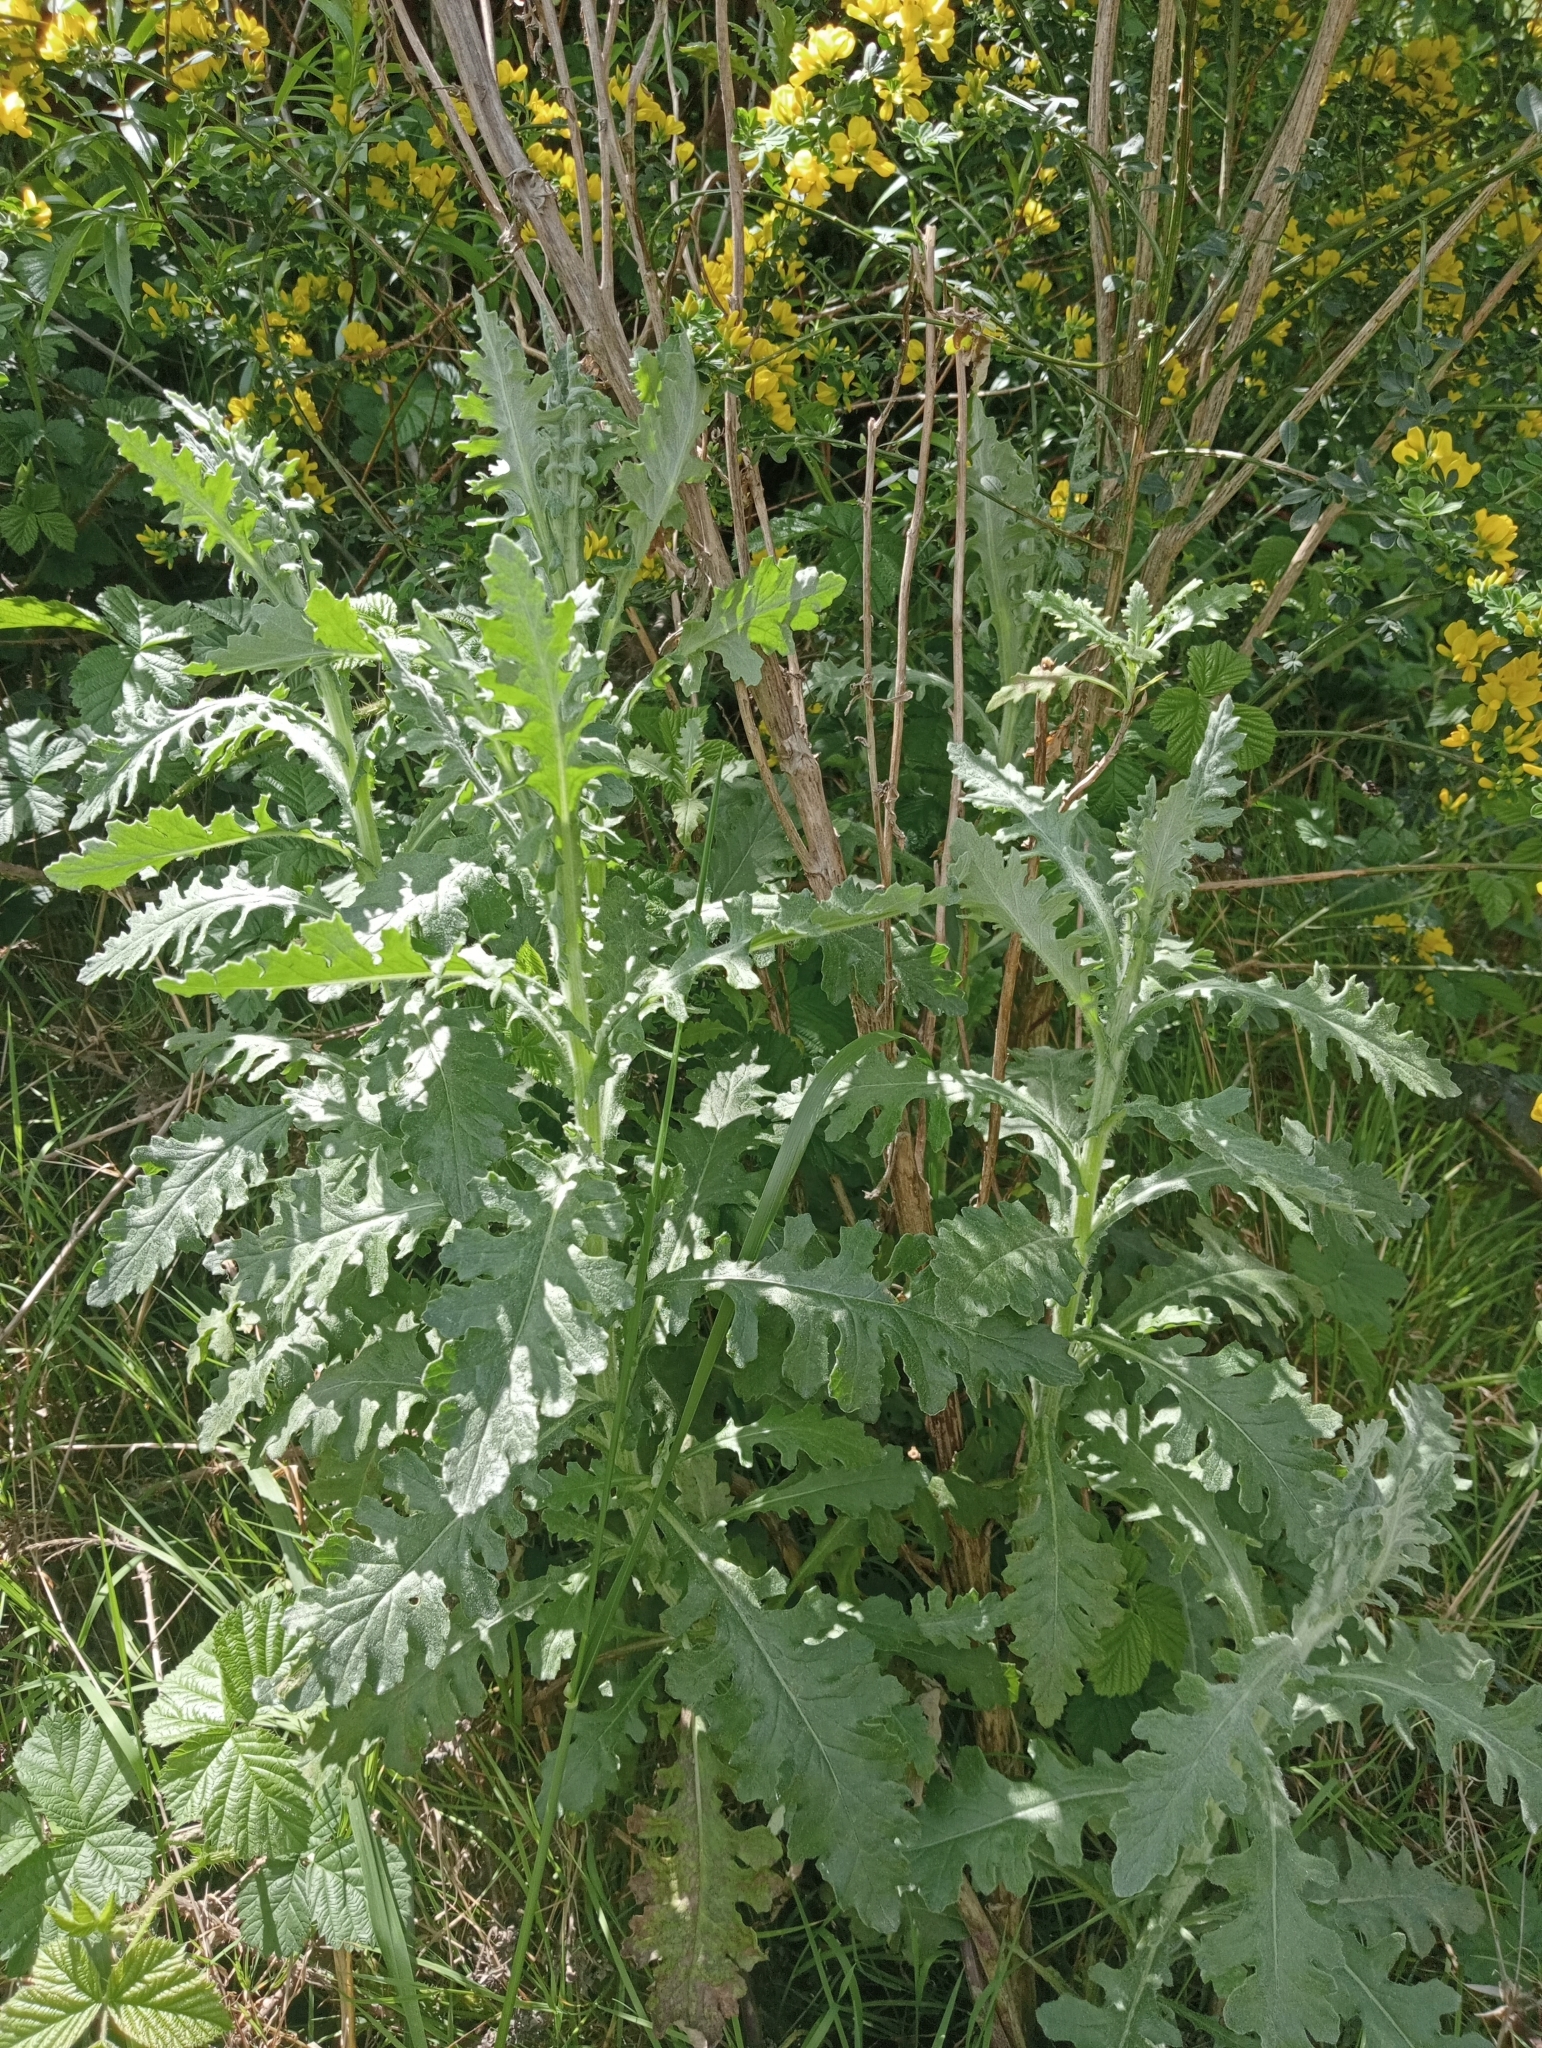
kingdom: Plantae
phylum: Tracheophyta
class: Magnoliopsida
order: Asterales
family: Asteraceae
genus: Senecio
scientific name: Senecio glomeratus
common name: Cutleaf burnweed
